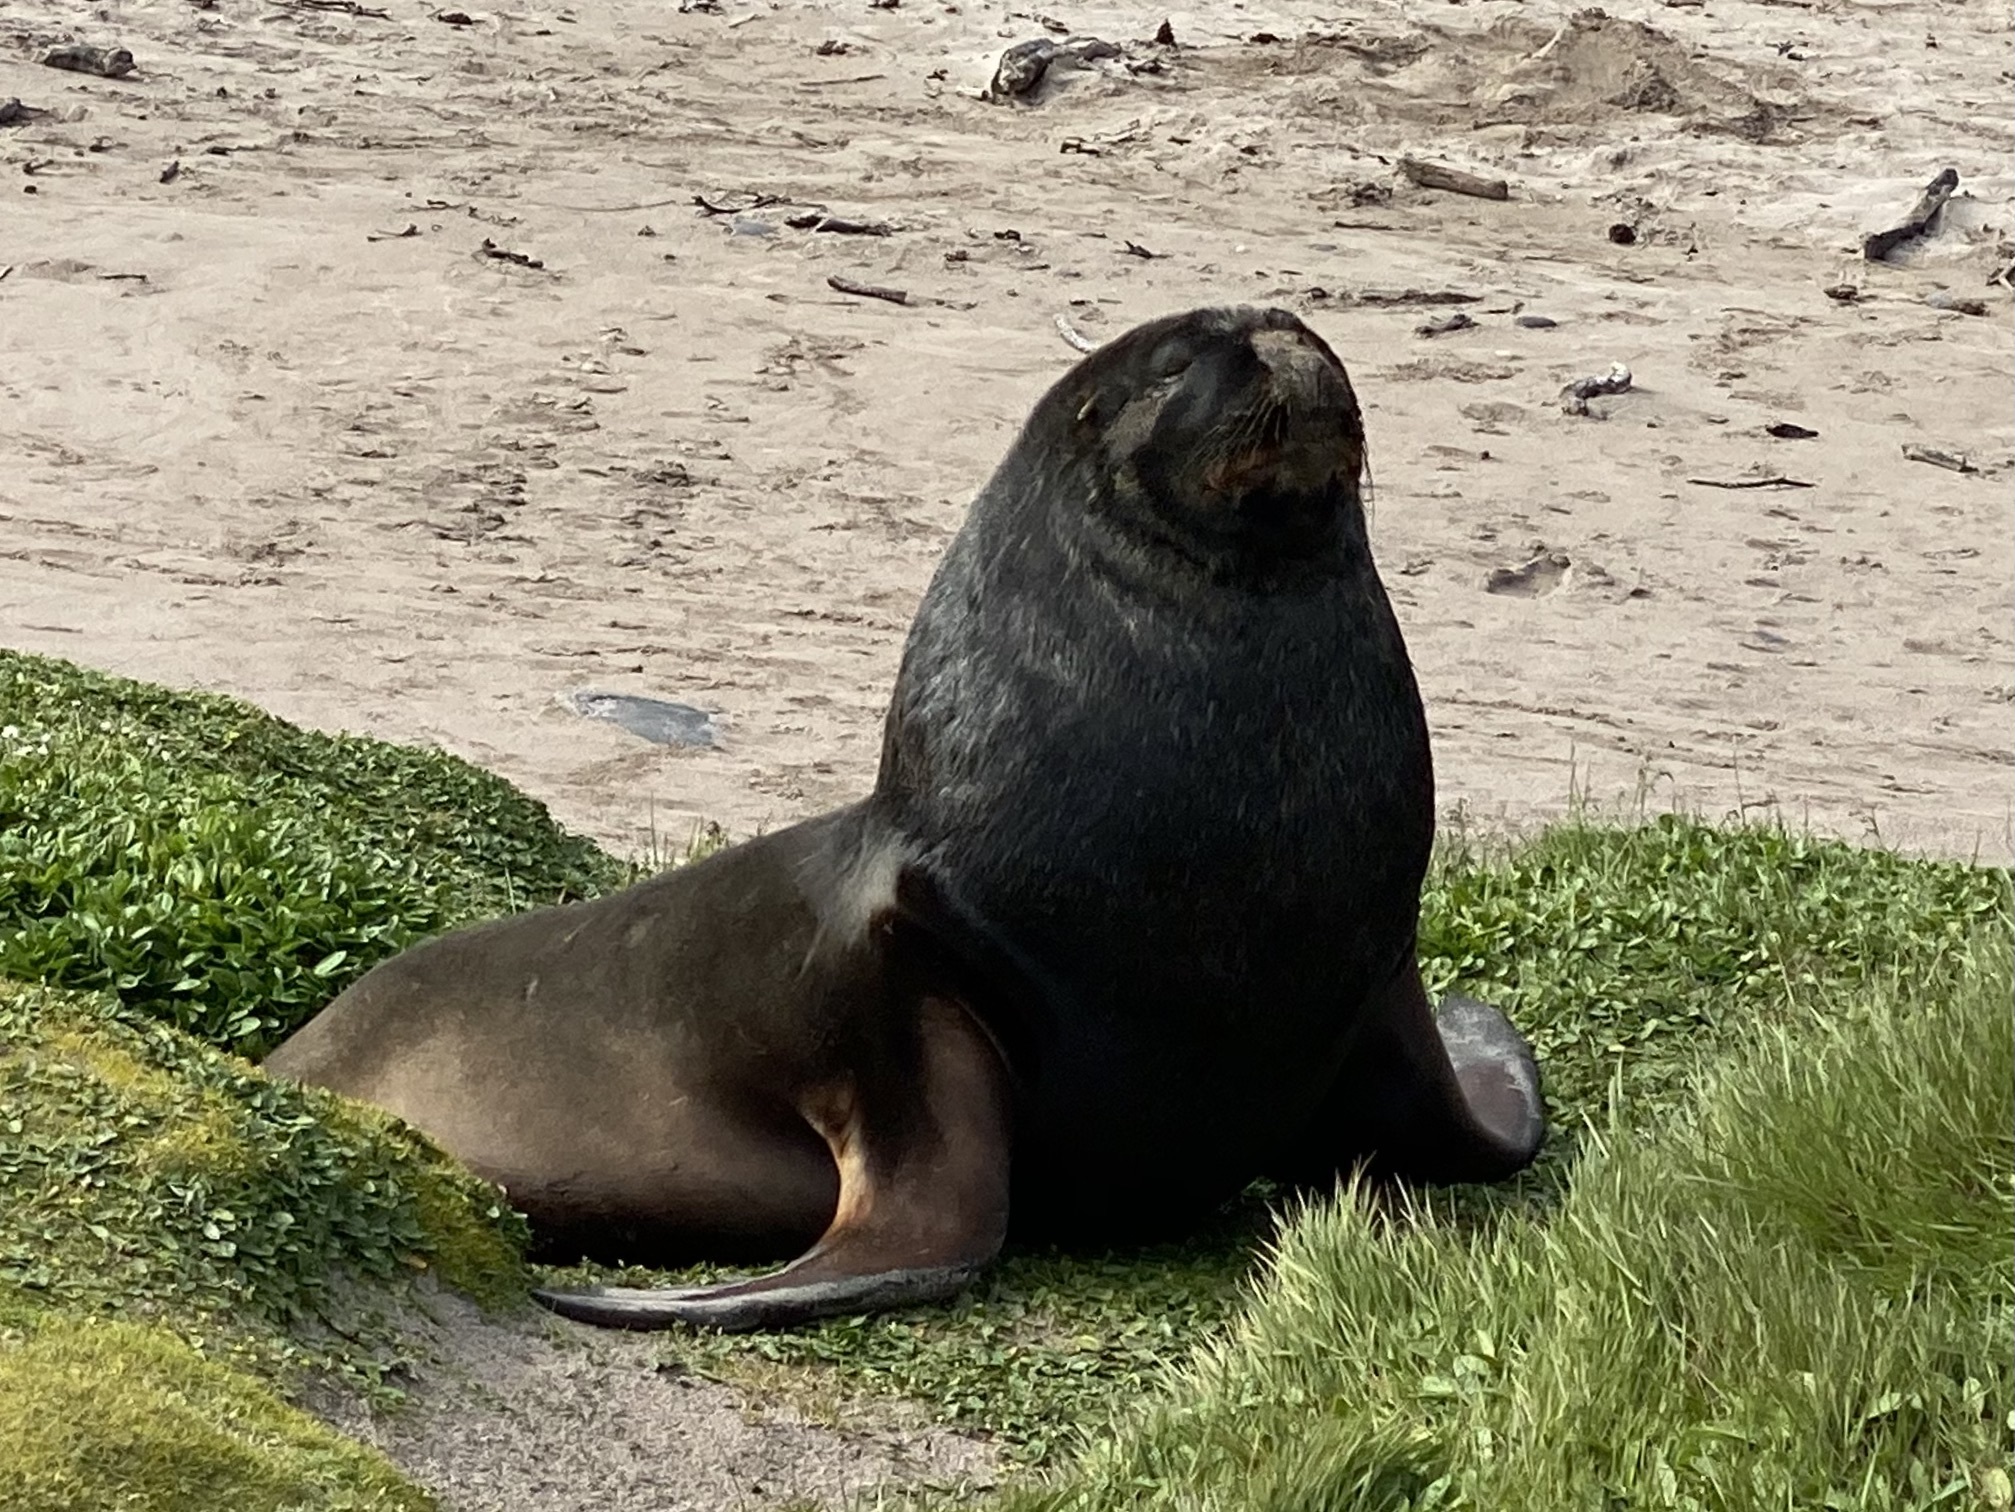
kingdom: Animalia
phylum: Chordata
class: Mammalia
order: Carnivora
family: Otariidae
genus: Phocarctos
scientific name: Phocarctos hookeri
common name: New zealand sea lion
